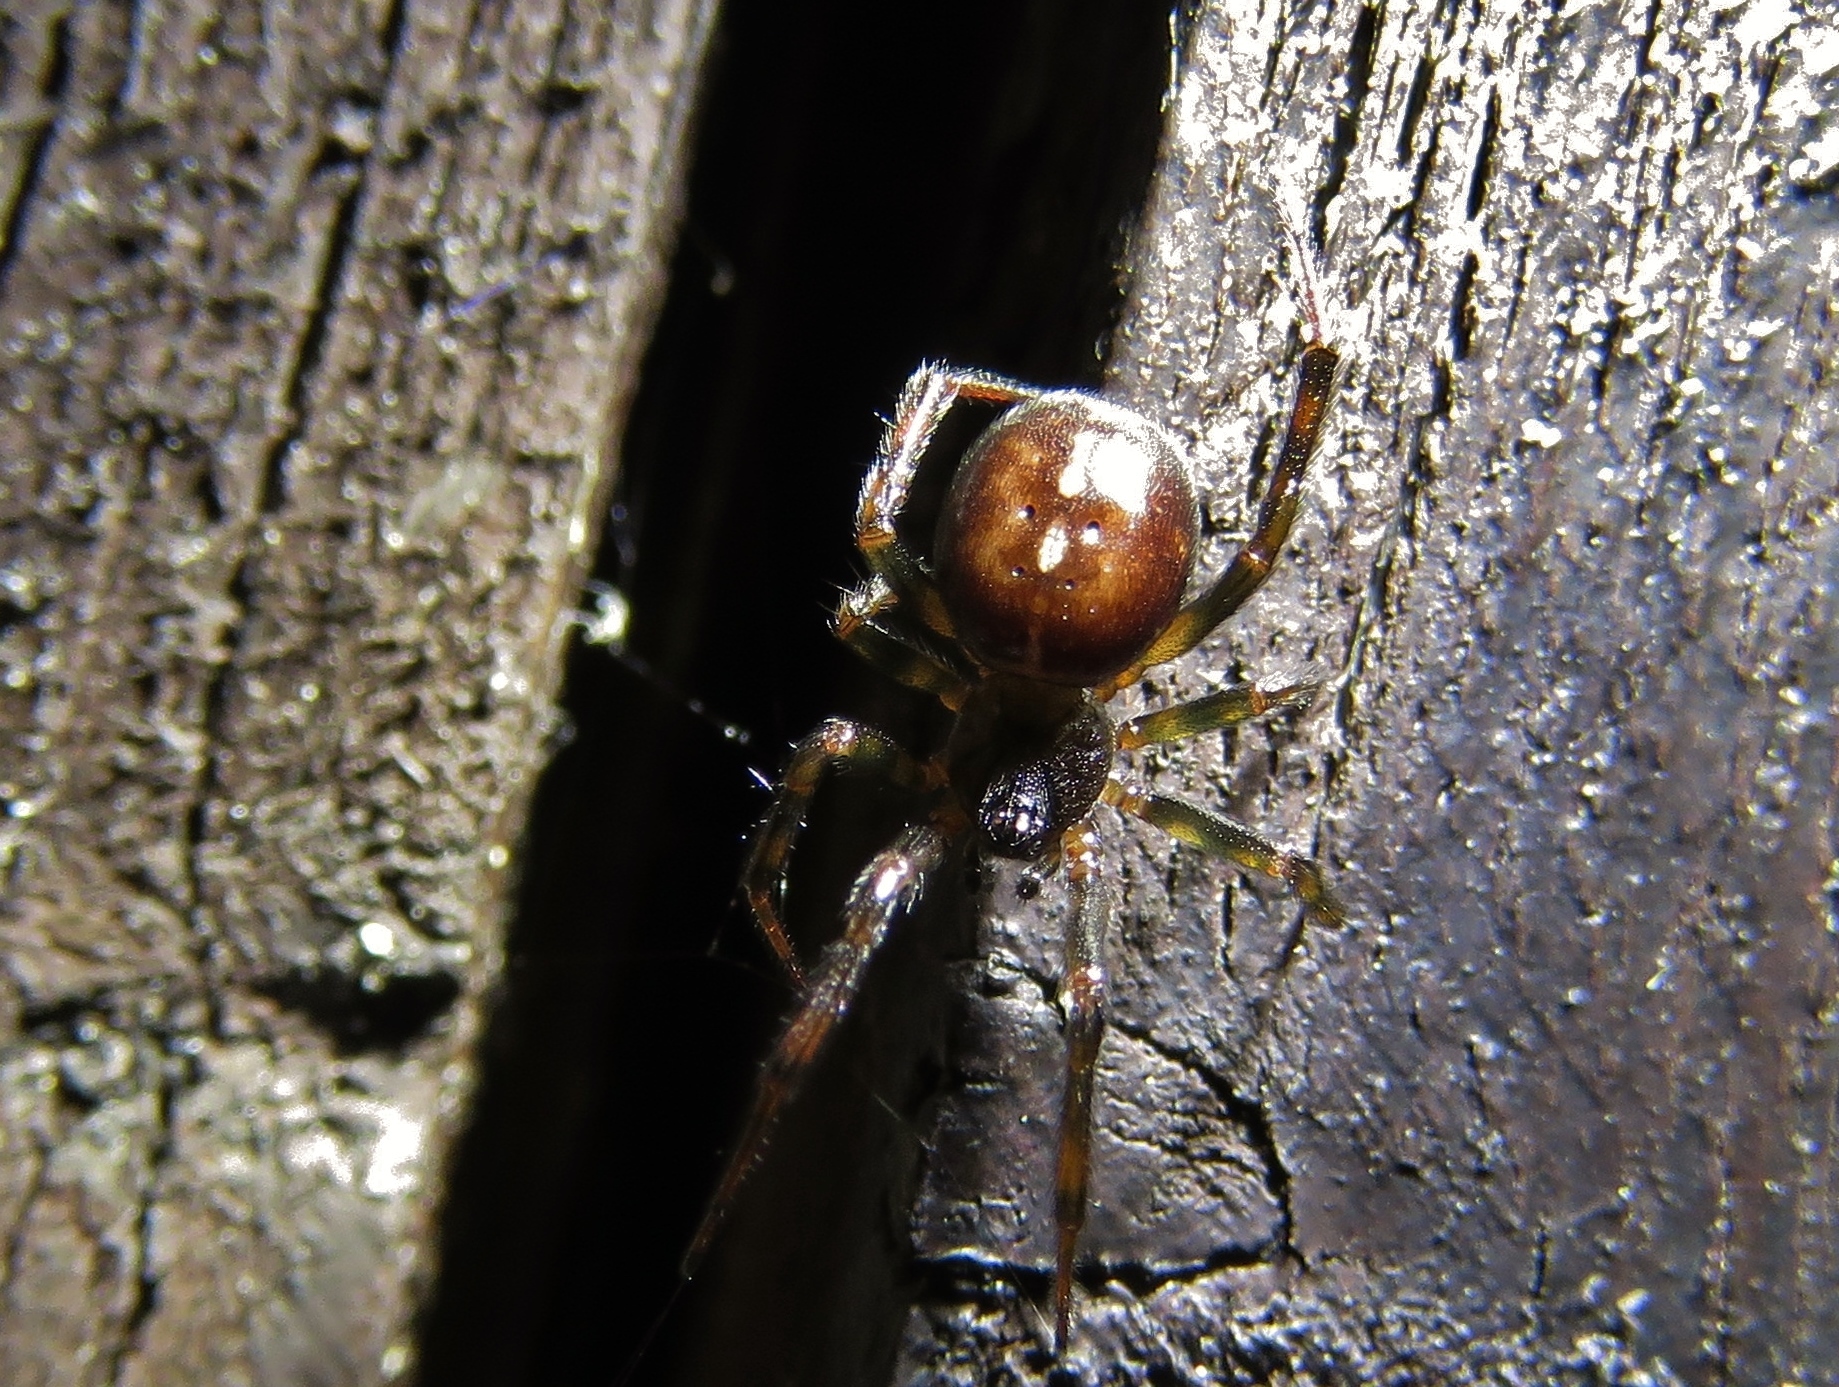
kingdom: Animalia
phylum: Arthropoda
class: Arachnida
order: Araneae
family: Theridiidae
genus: Steatoda
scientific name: Steatoda bipunctata
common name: False widow
